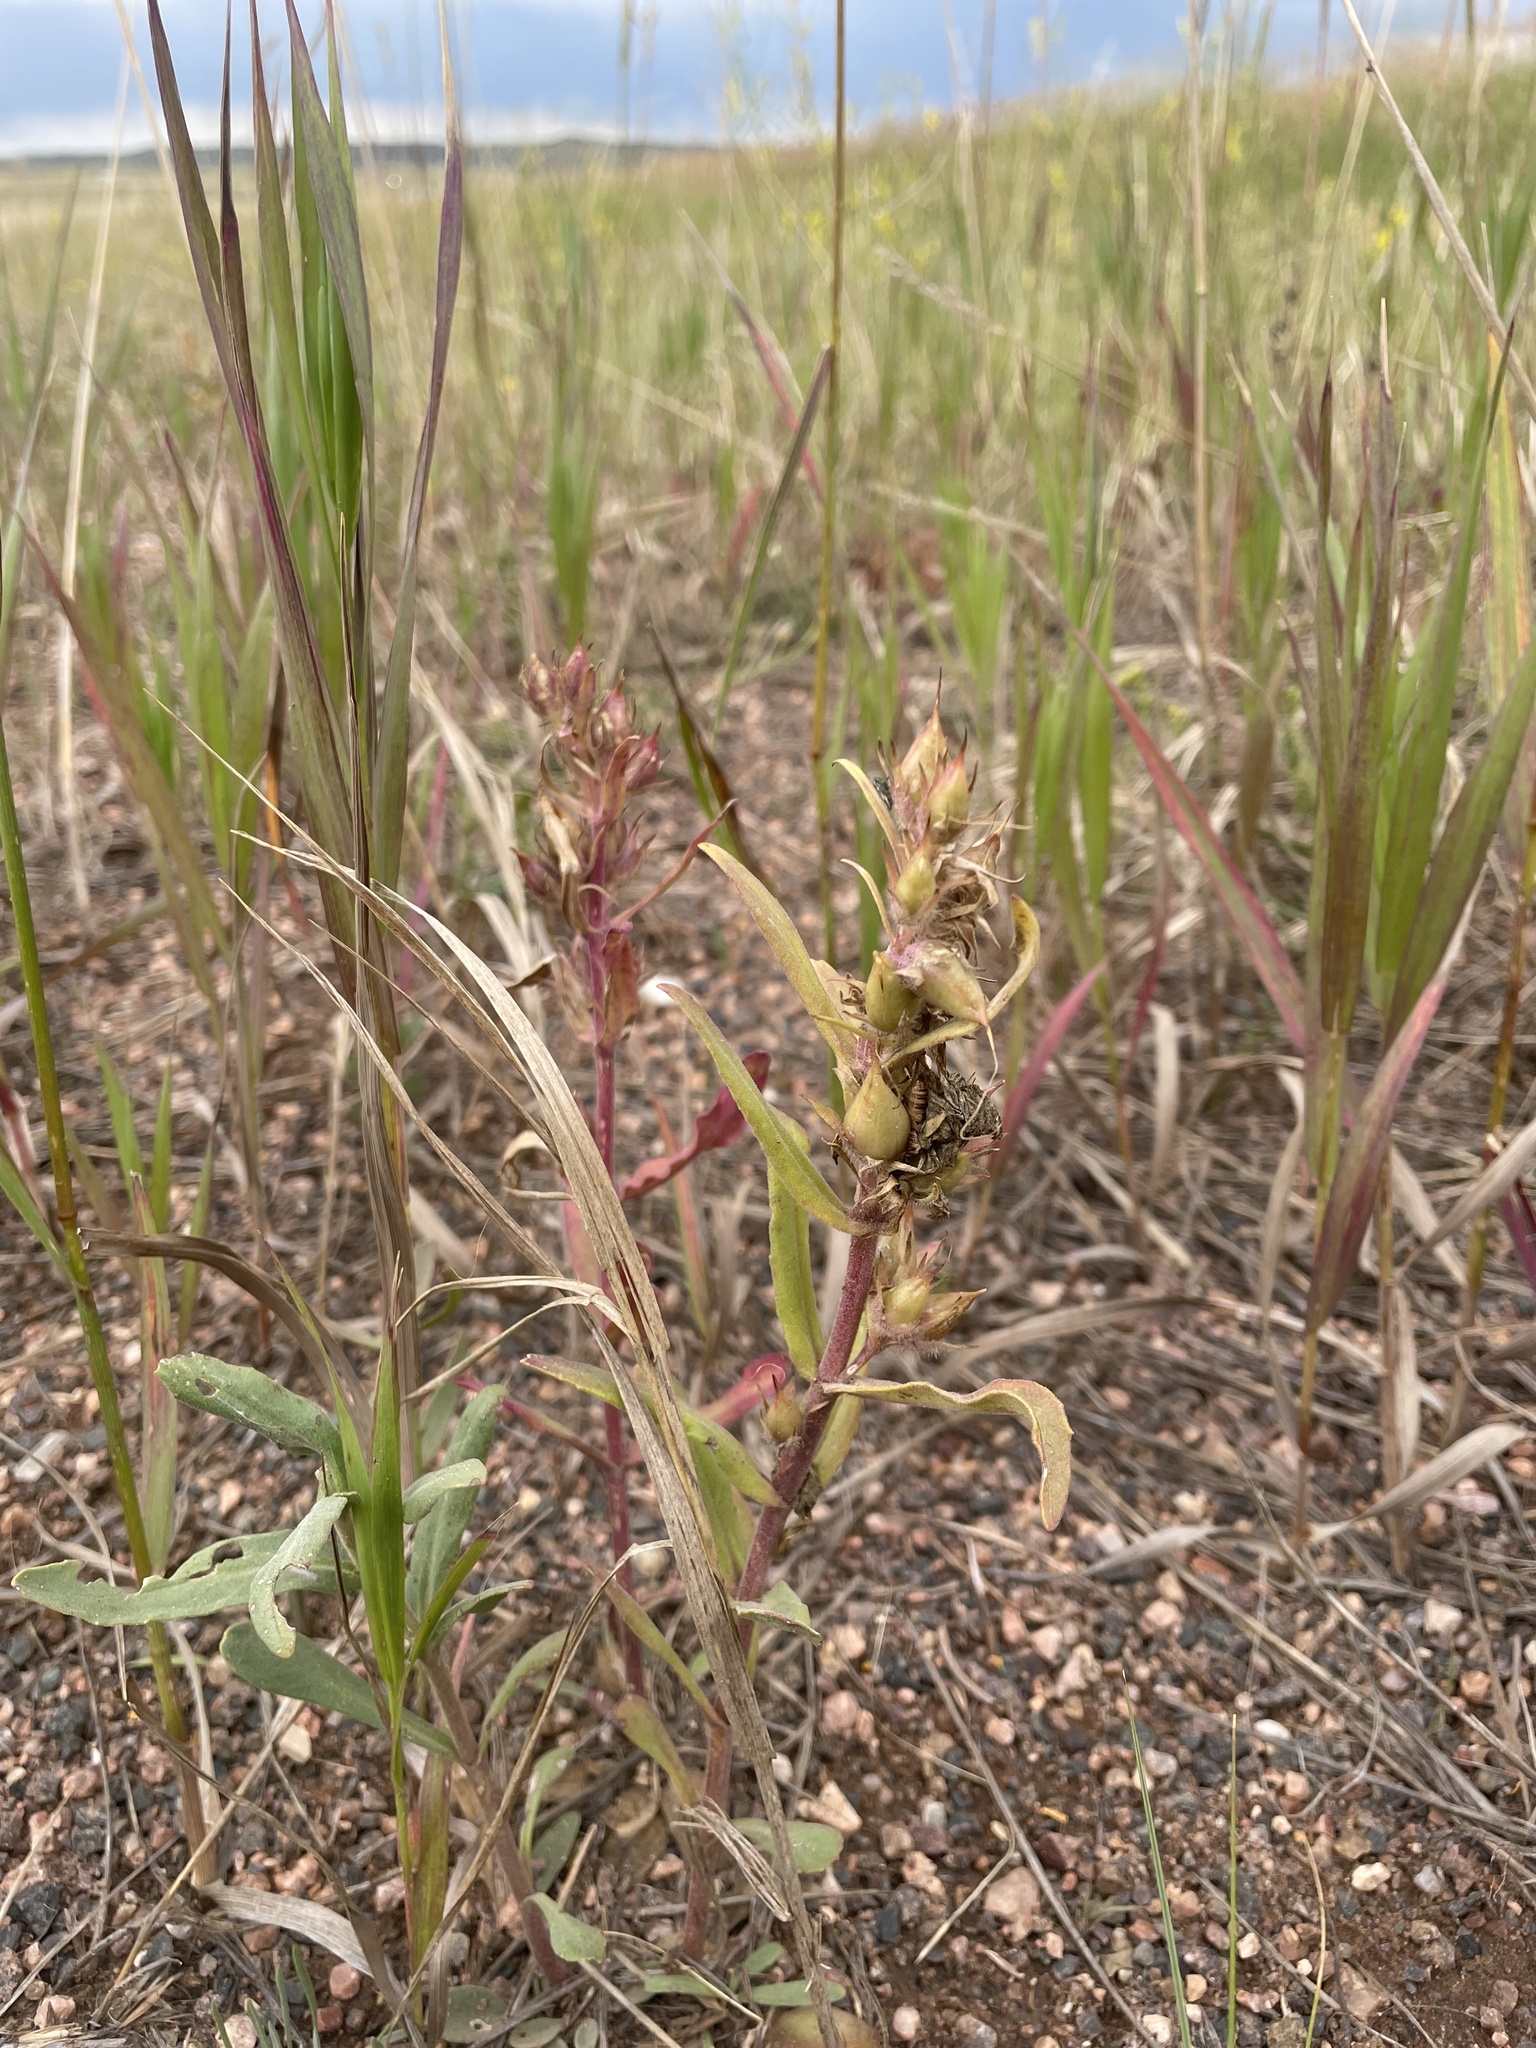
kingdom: Plantae
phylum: Tracheophyta
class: Magnoliopsida
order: Lamiales
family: Plantaginaceae
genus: Penstemon
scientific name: Penstemon eriantherus
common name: Crested beardtongue
